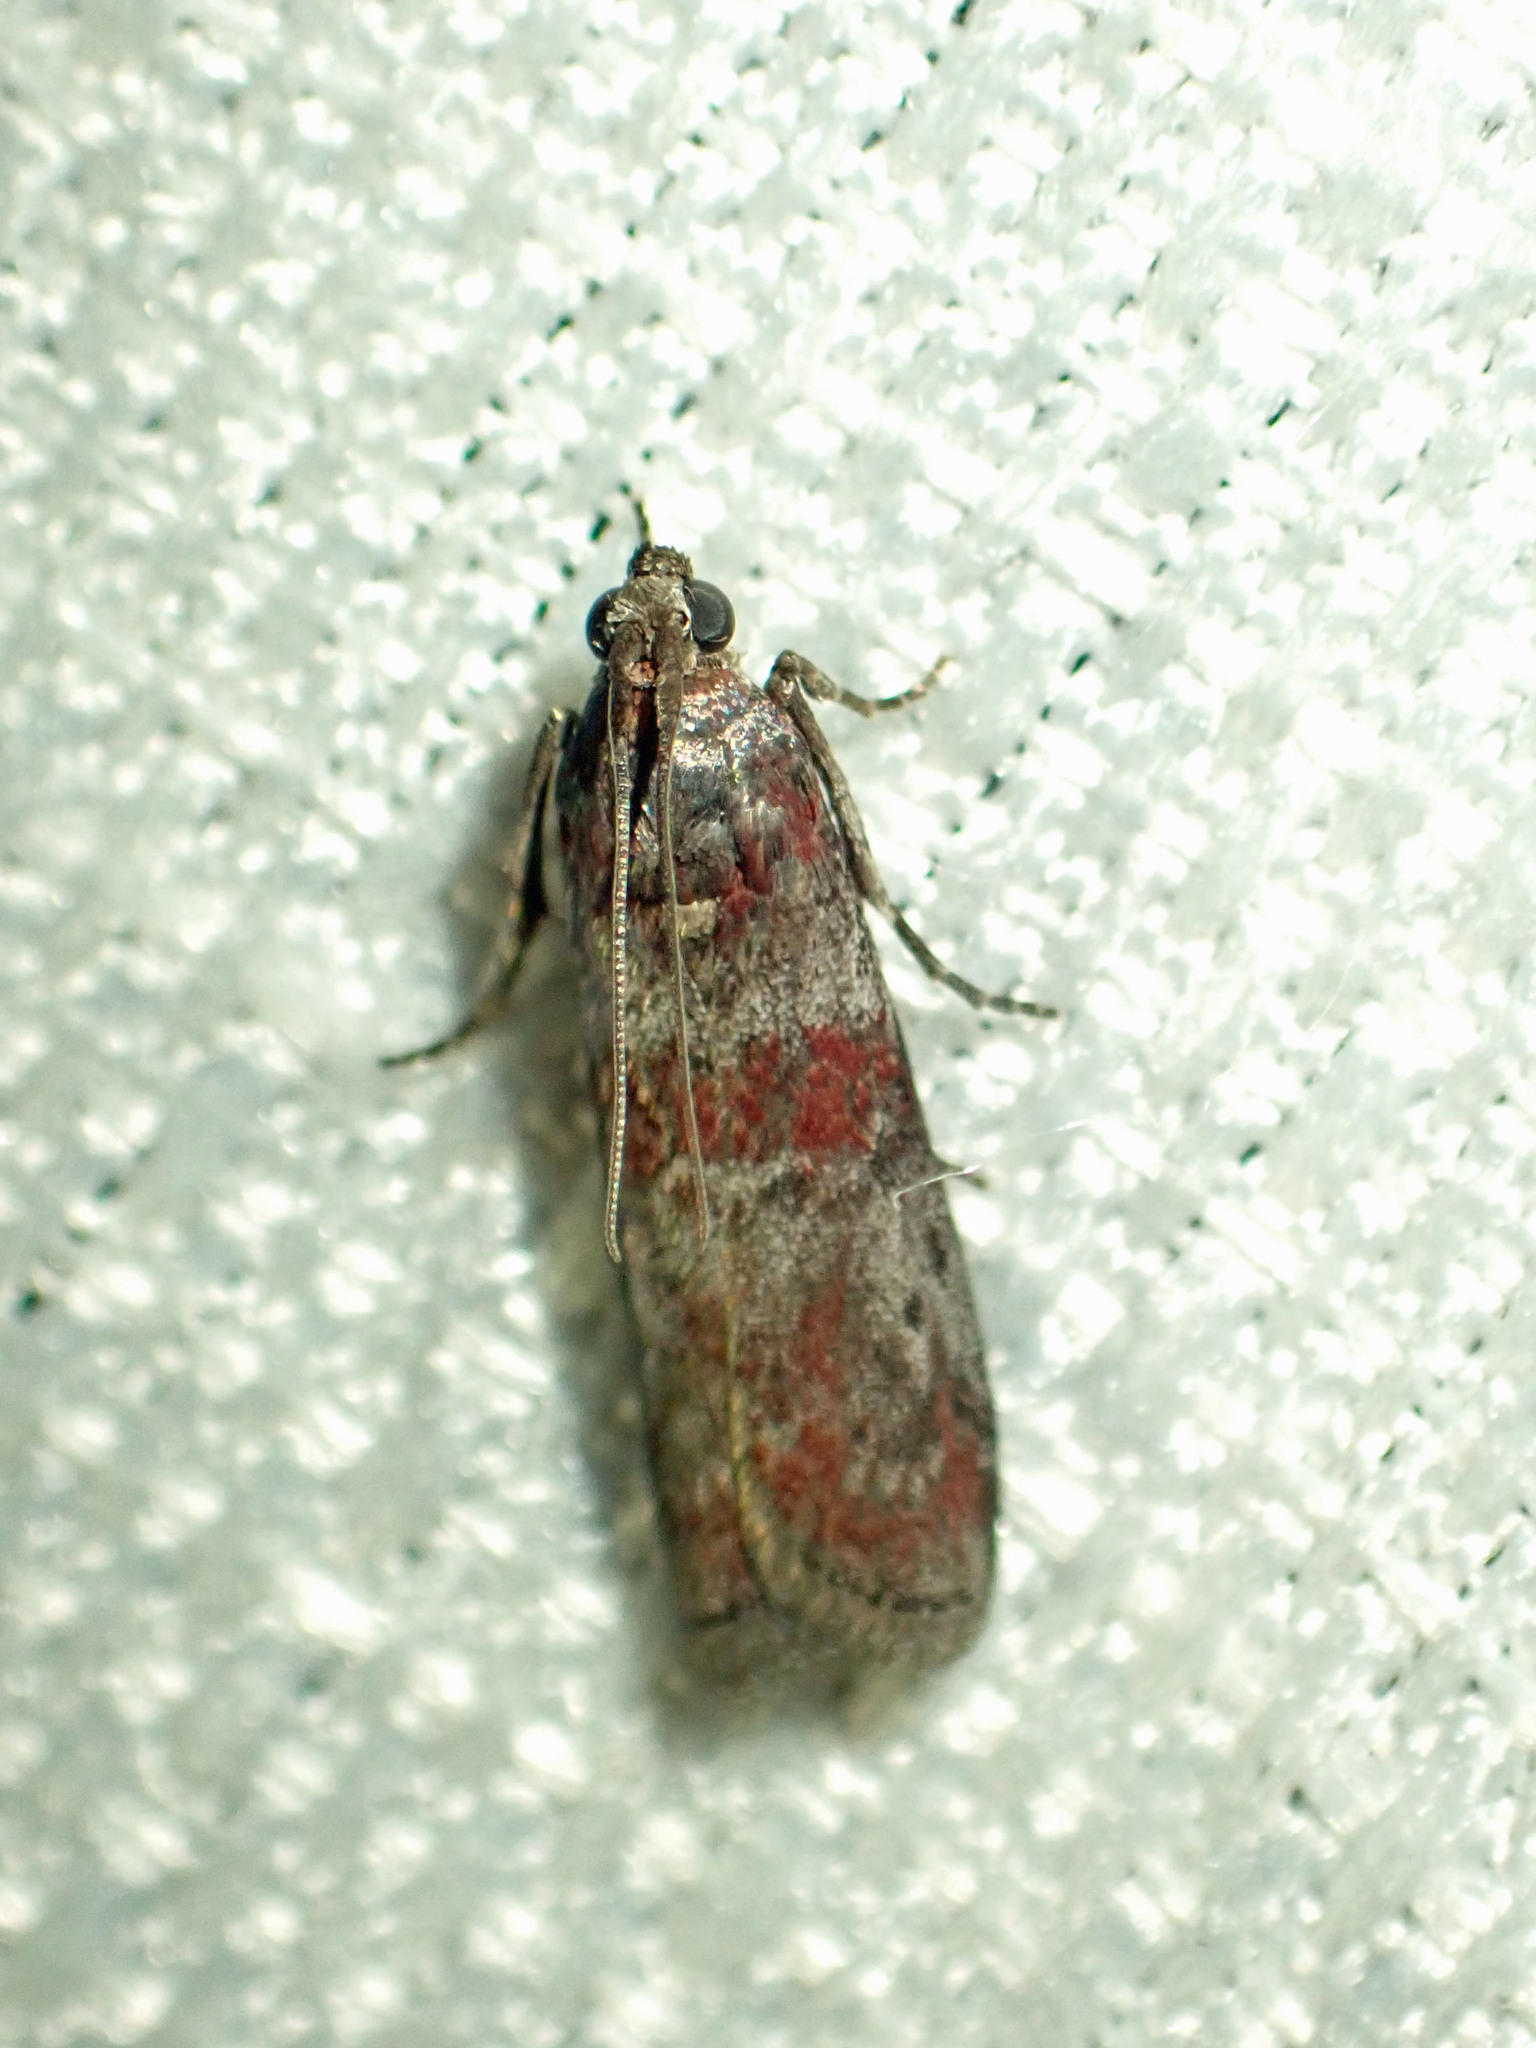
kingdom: Animalia
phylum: Arthropoda
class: Insecta
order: Lepidoptera
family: Pyralidae
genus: Sciota
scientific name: Sciota carneella
